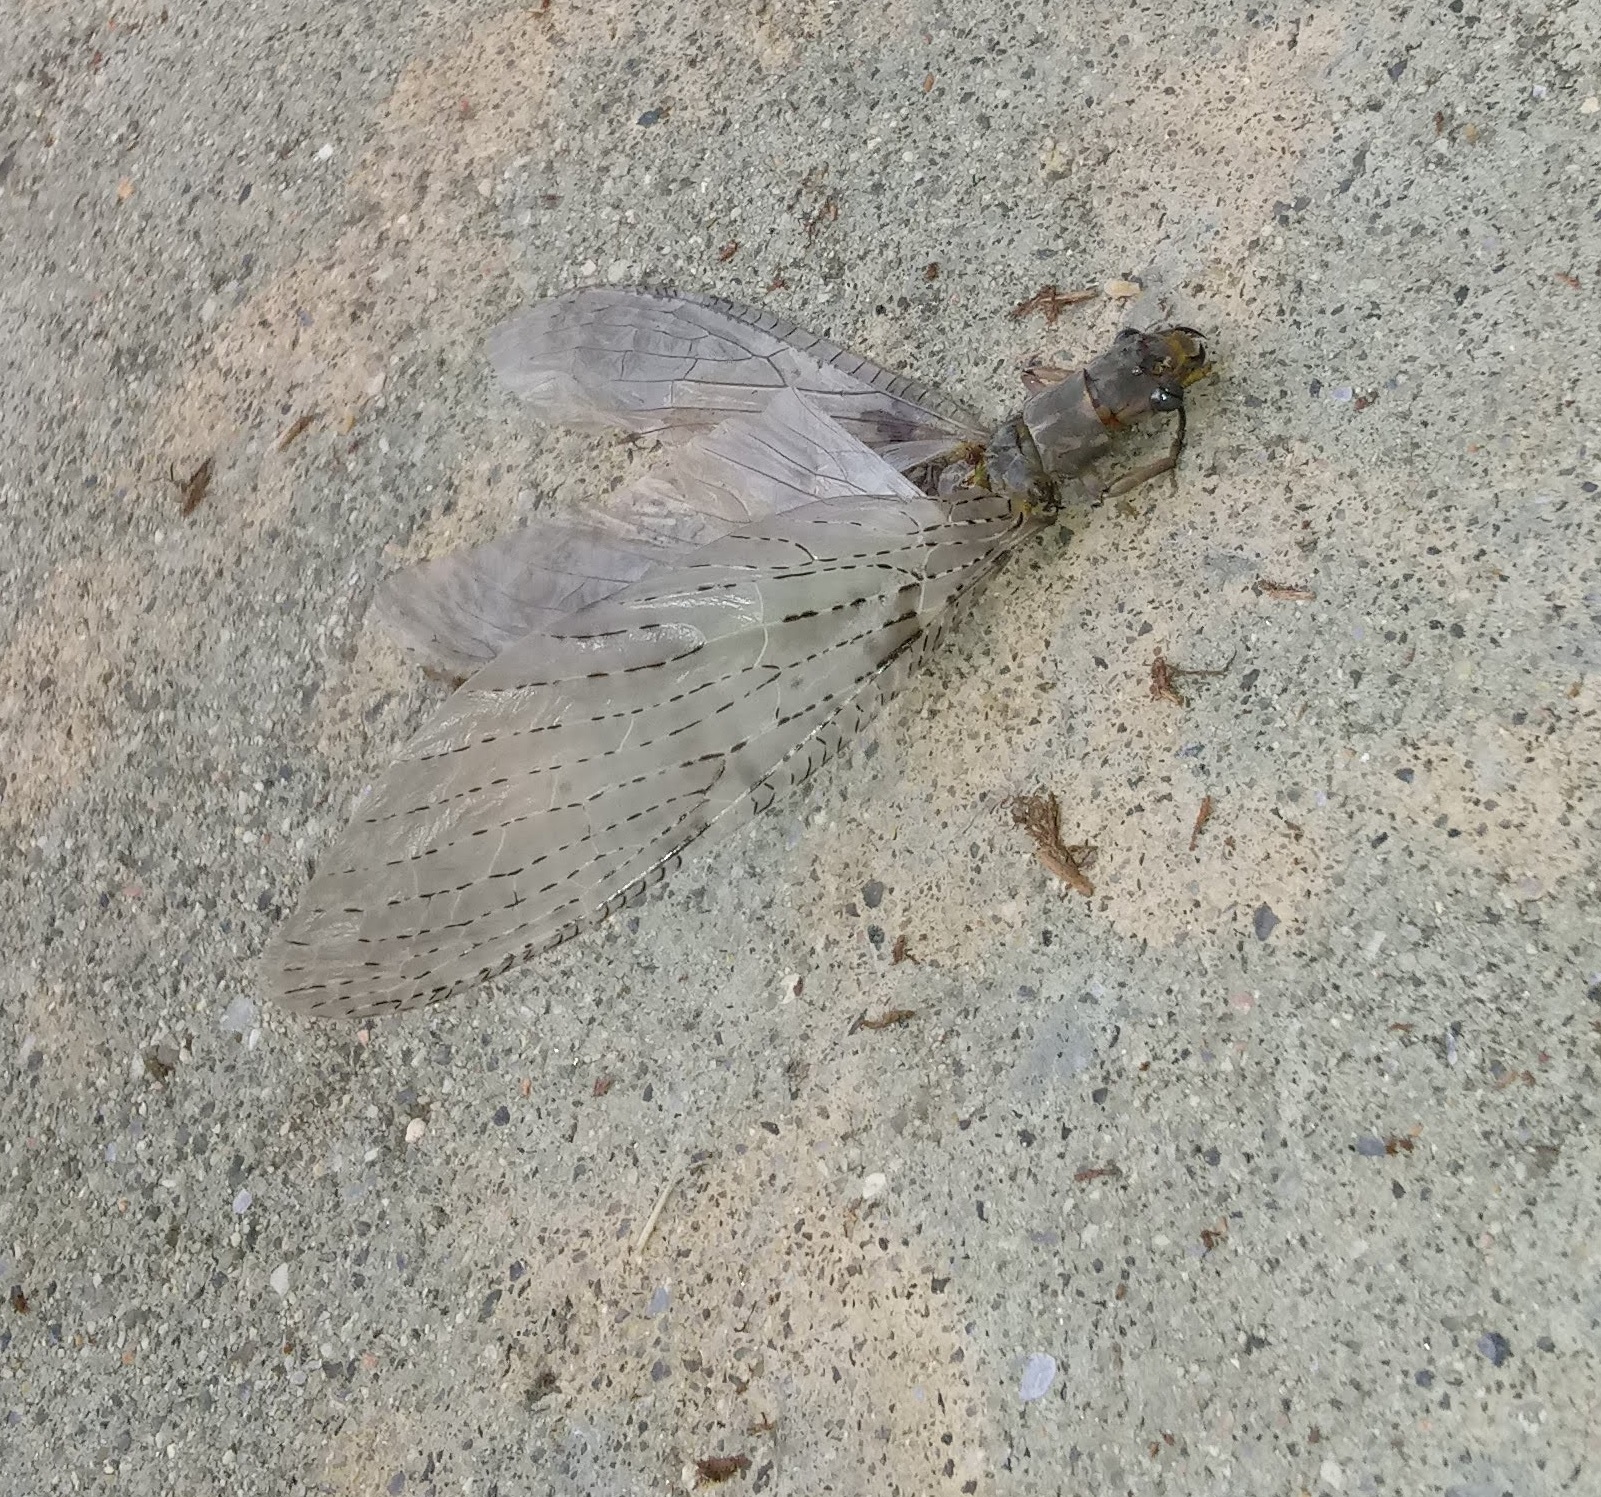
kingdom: Animalia
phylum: Arthropoda
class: Insecta
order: Megaloptera
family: Corydalidae
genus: Chauliodes
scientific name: Chauliodes pectinicornis
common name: Summer fishfly
